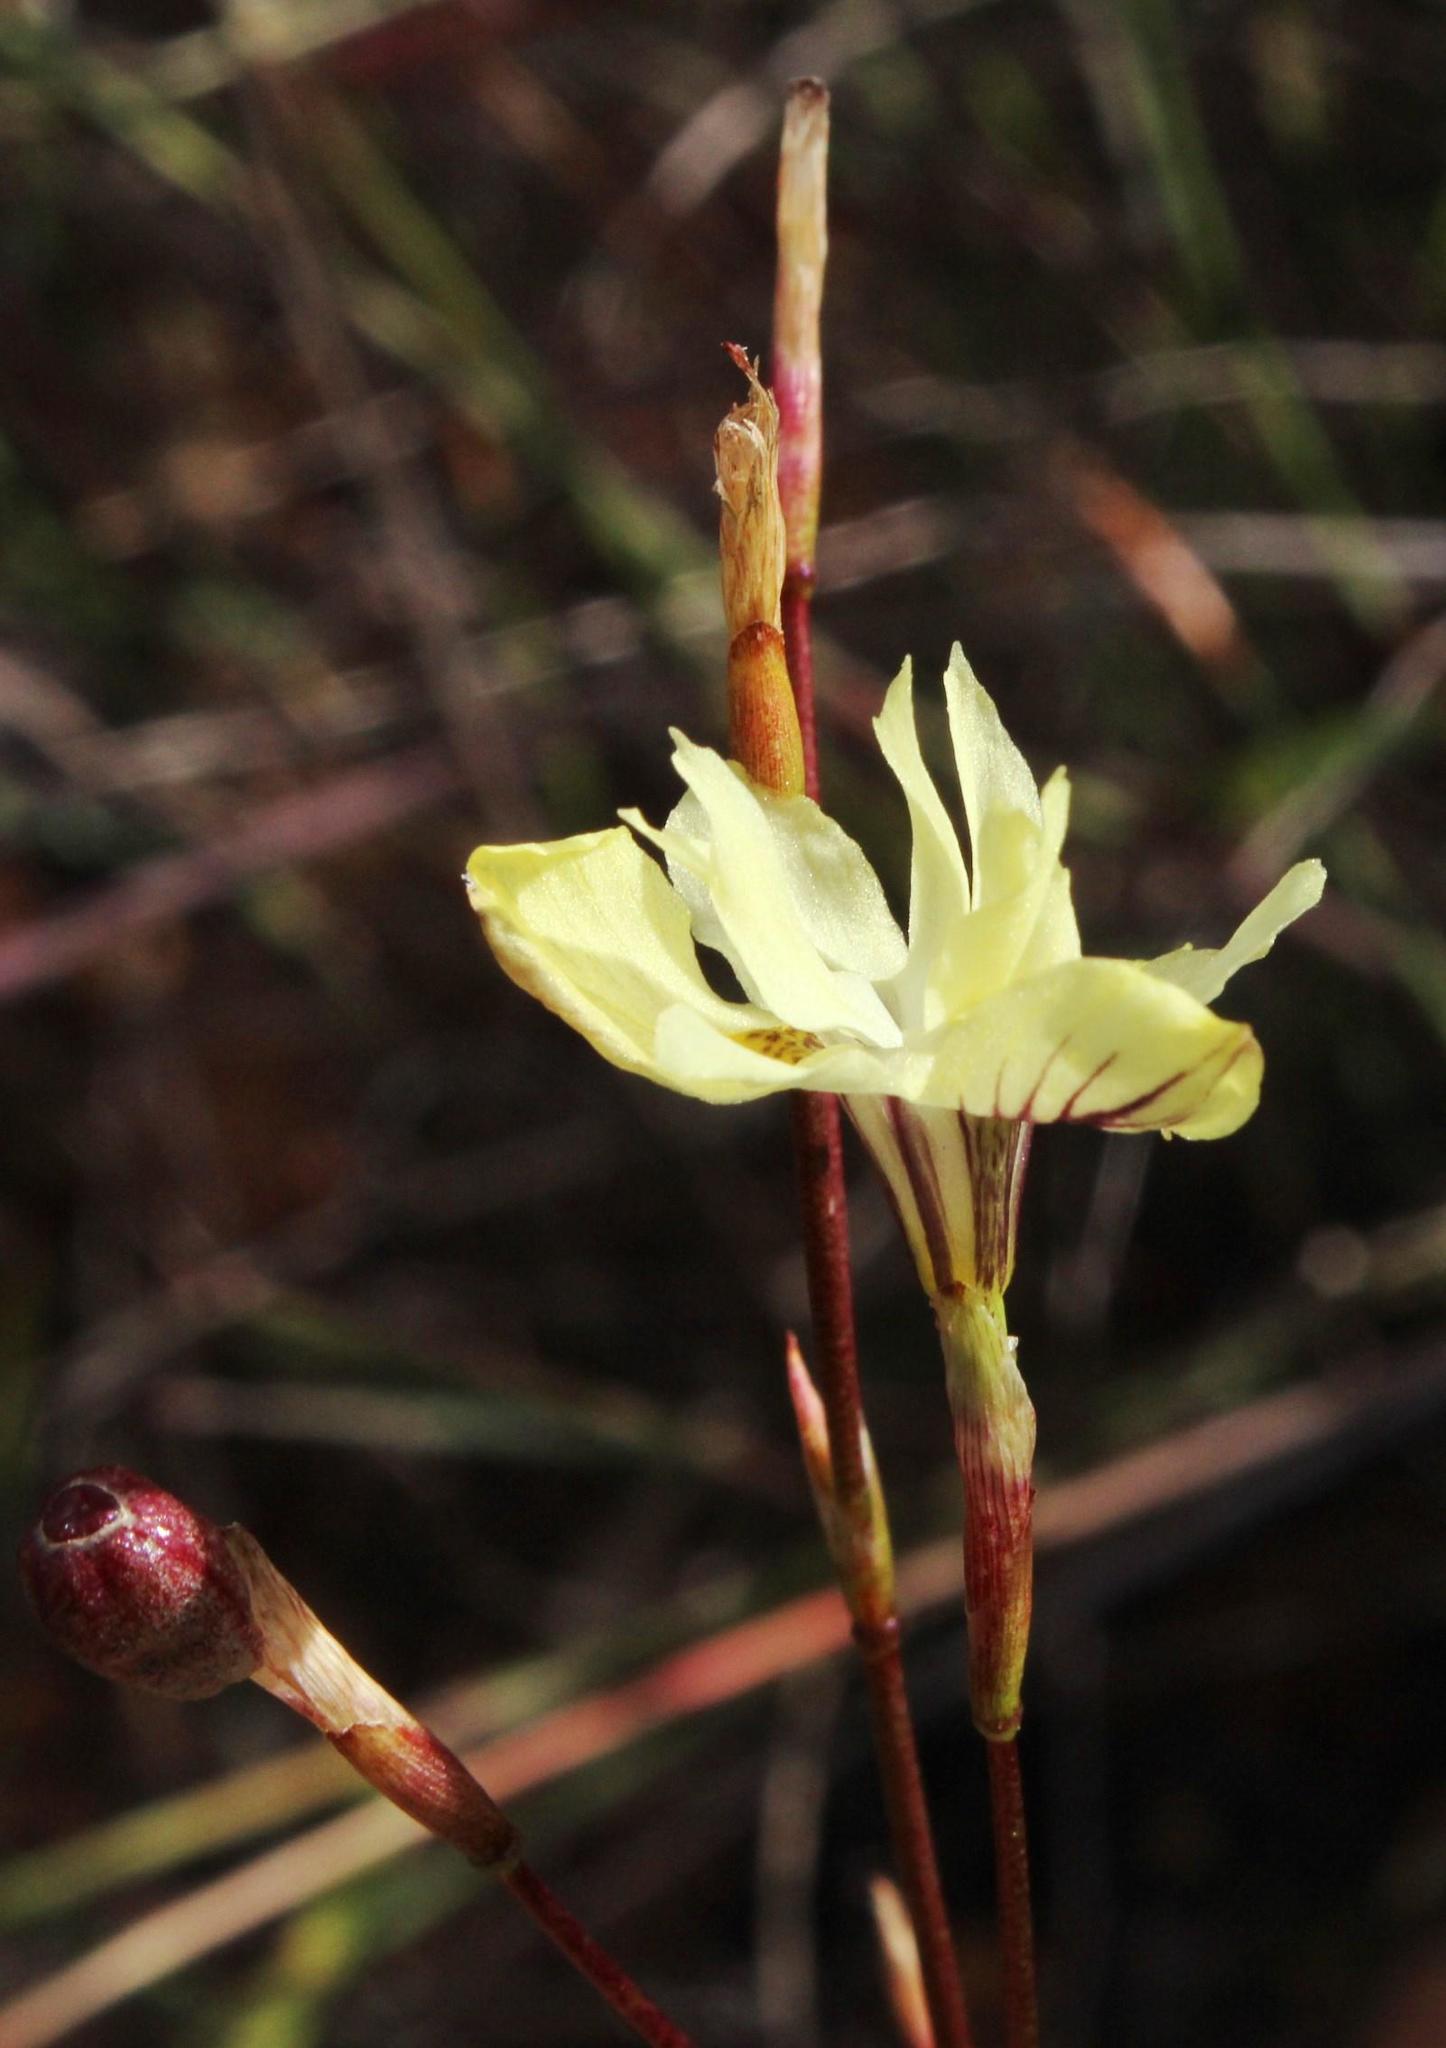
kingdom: Plantae
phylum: Tracheophyta
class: Liliopsida
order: Asparagales
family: Iridaceae
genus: Moraea
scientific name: Moraea gawleri
